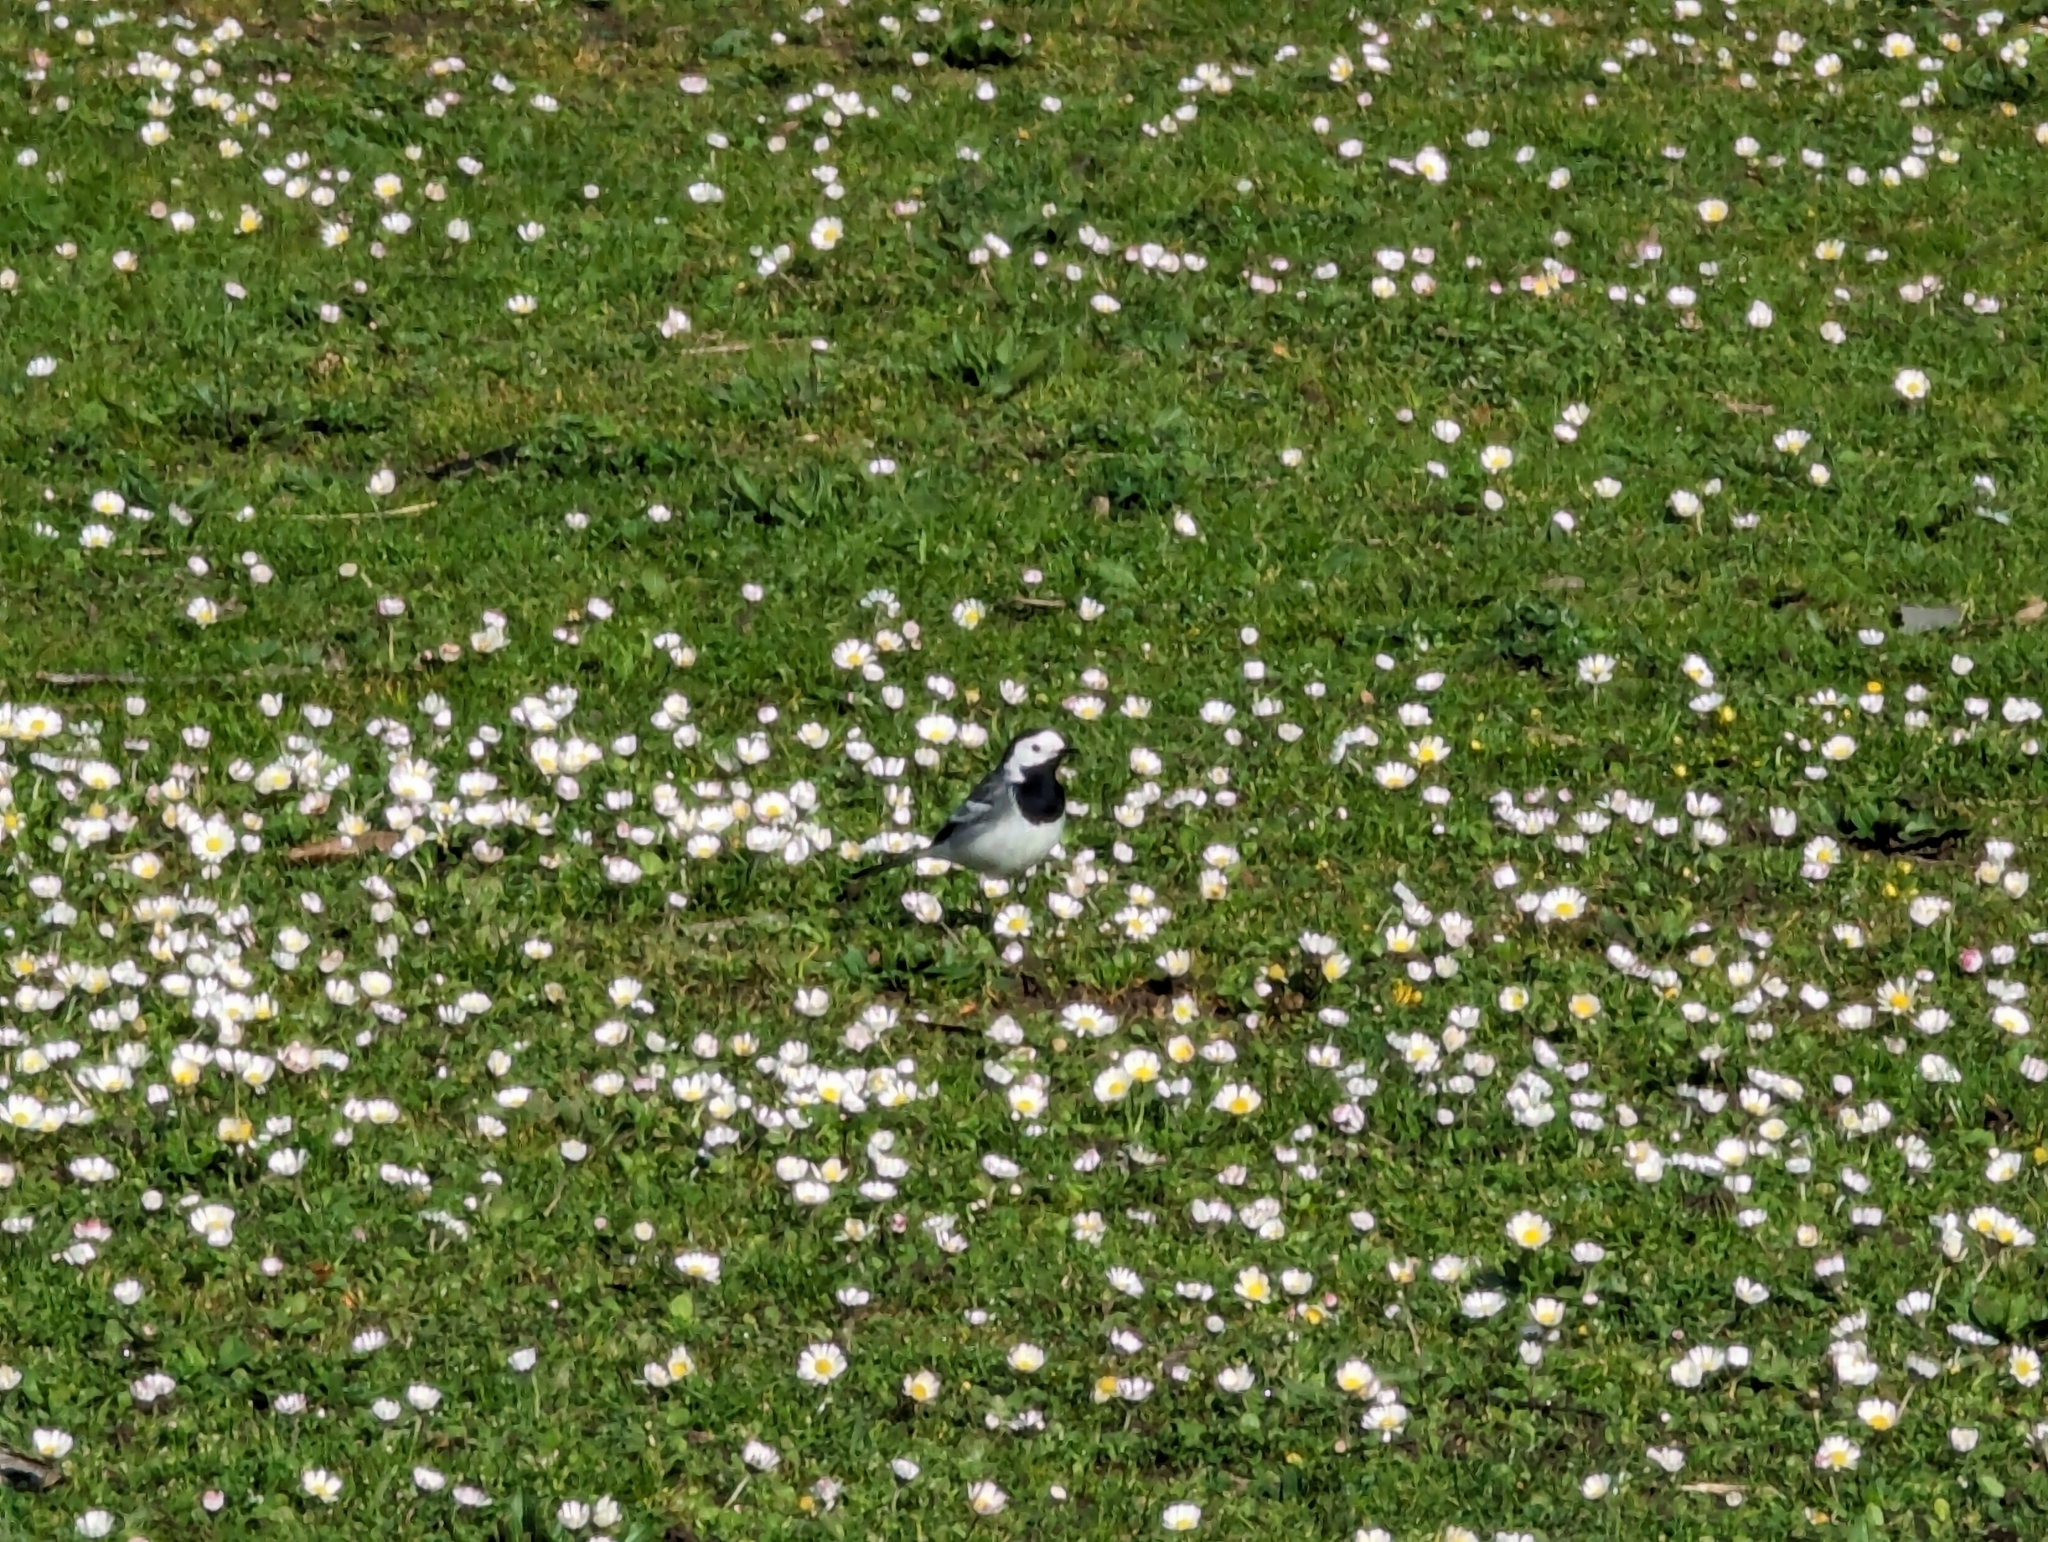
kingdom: Animalia
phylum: Chordata
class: Aves
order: Passeriformes
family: Motacillidae
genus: Motacilla
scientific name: Motacilla alba
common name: White wagtail
